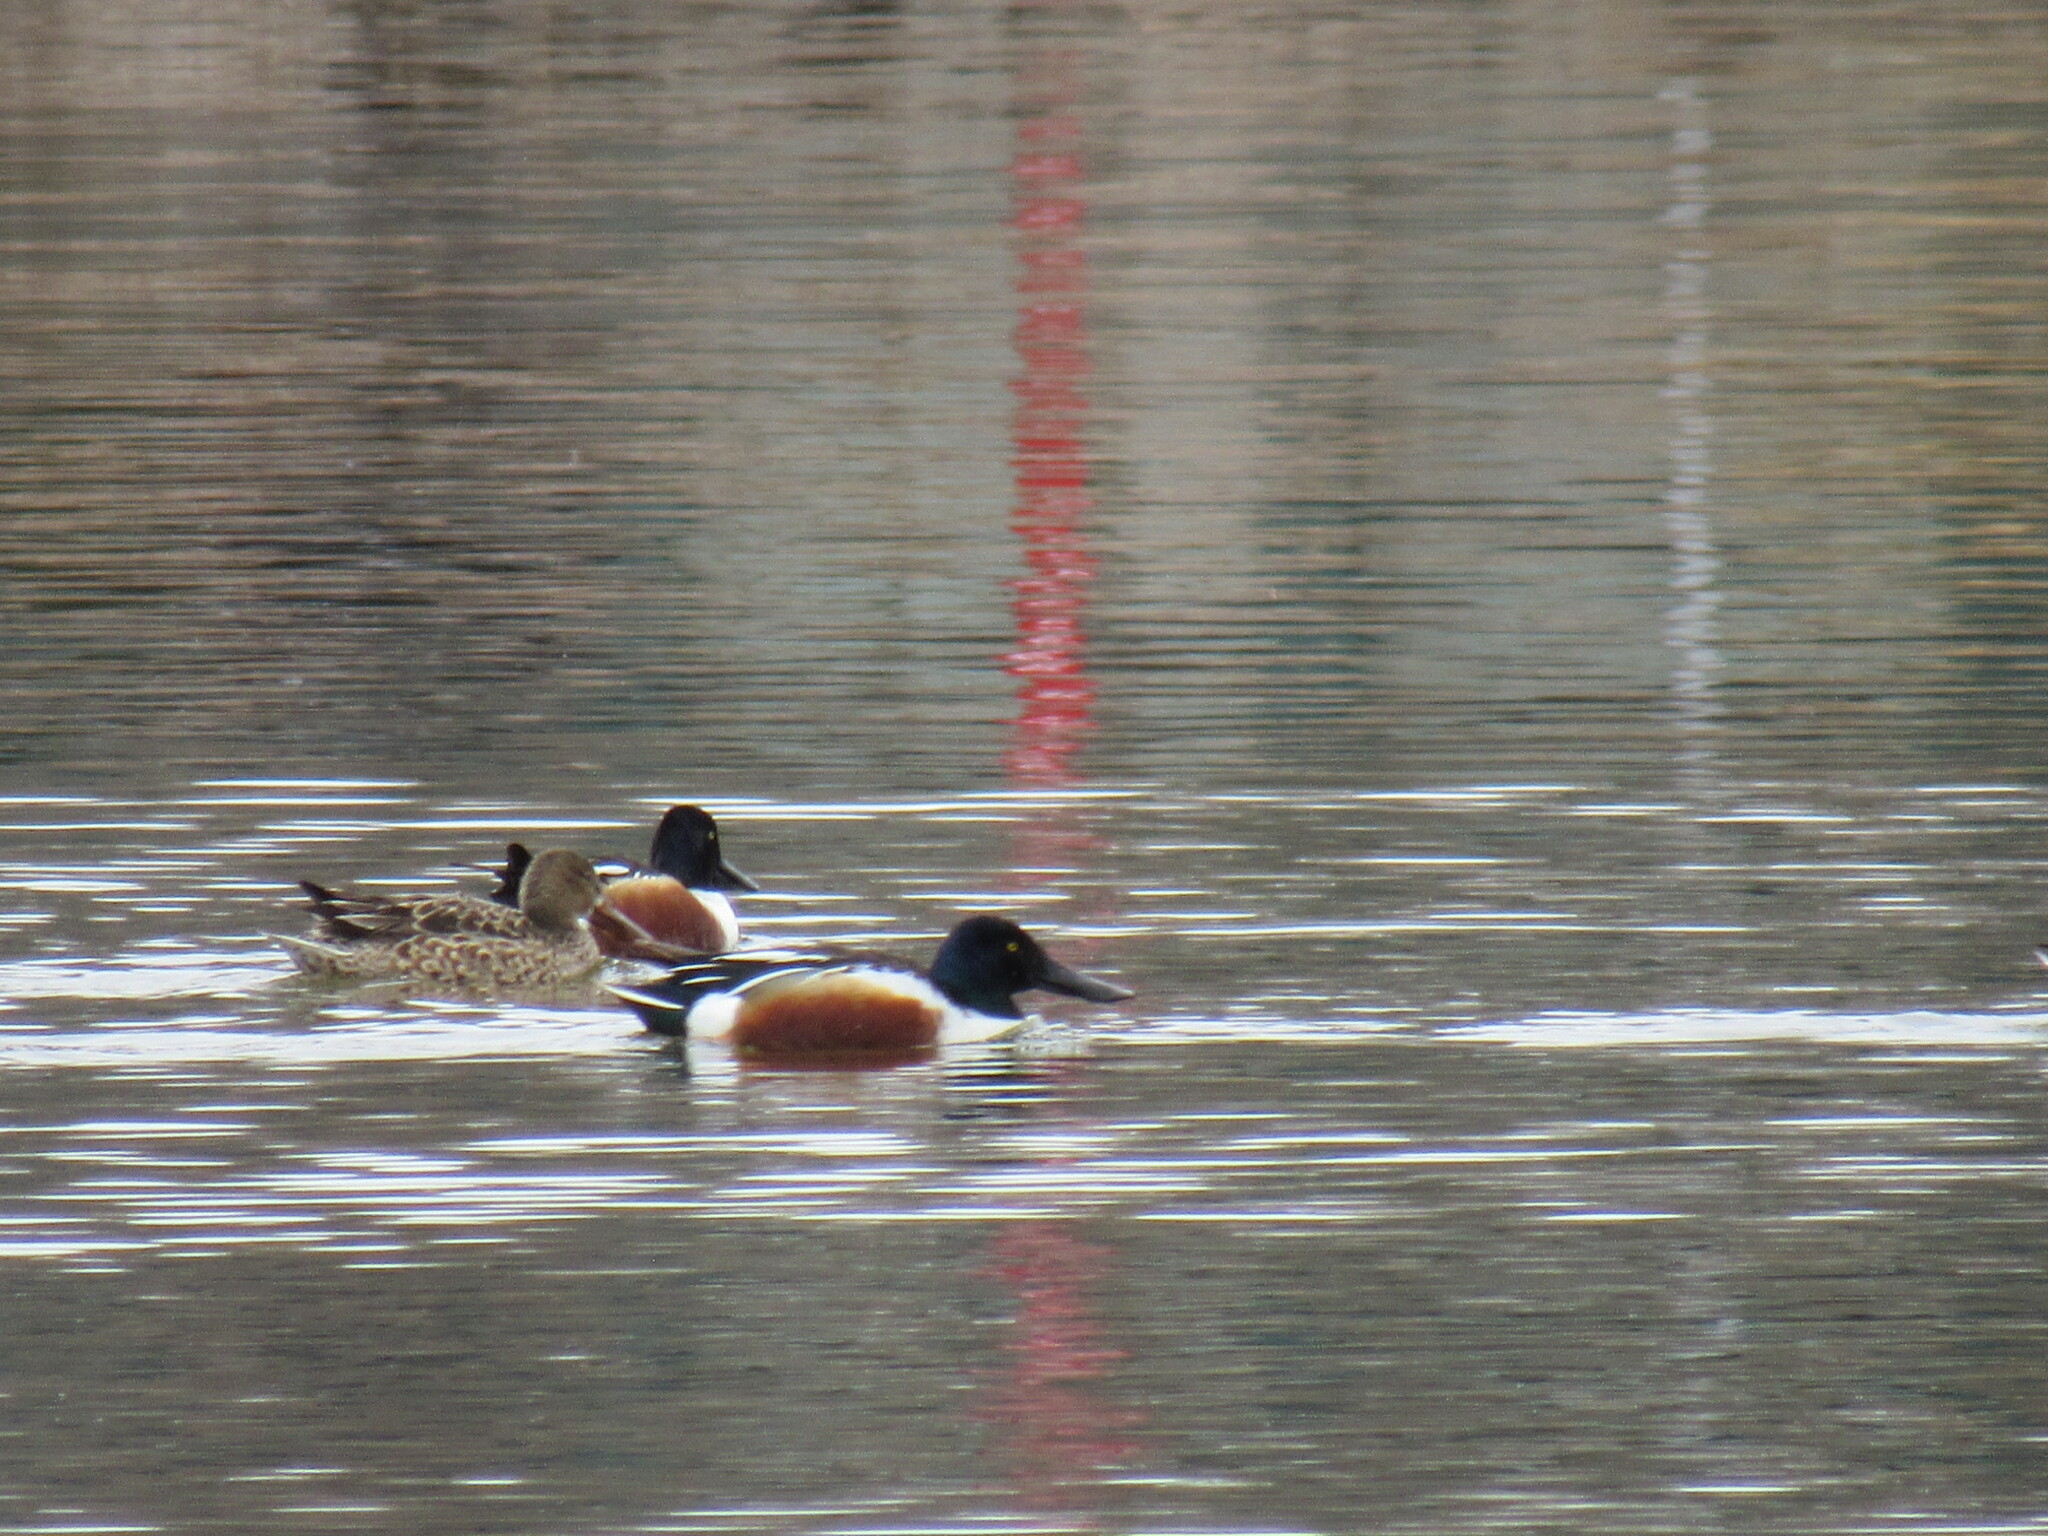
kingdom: Animalia
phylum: Chordata
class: Aves
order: Anseriformes
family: Anatidae
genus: Spatula
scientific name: Spatula clypeata
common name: Northern shoveler
